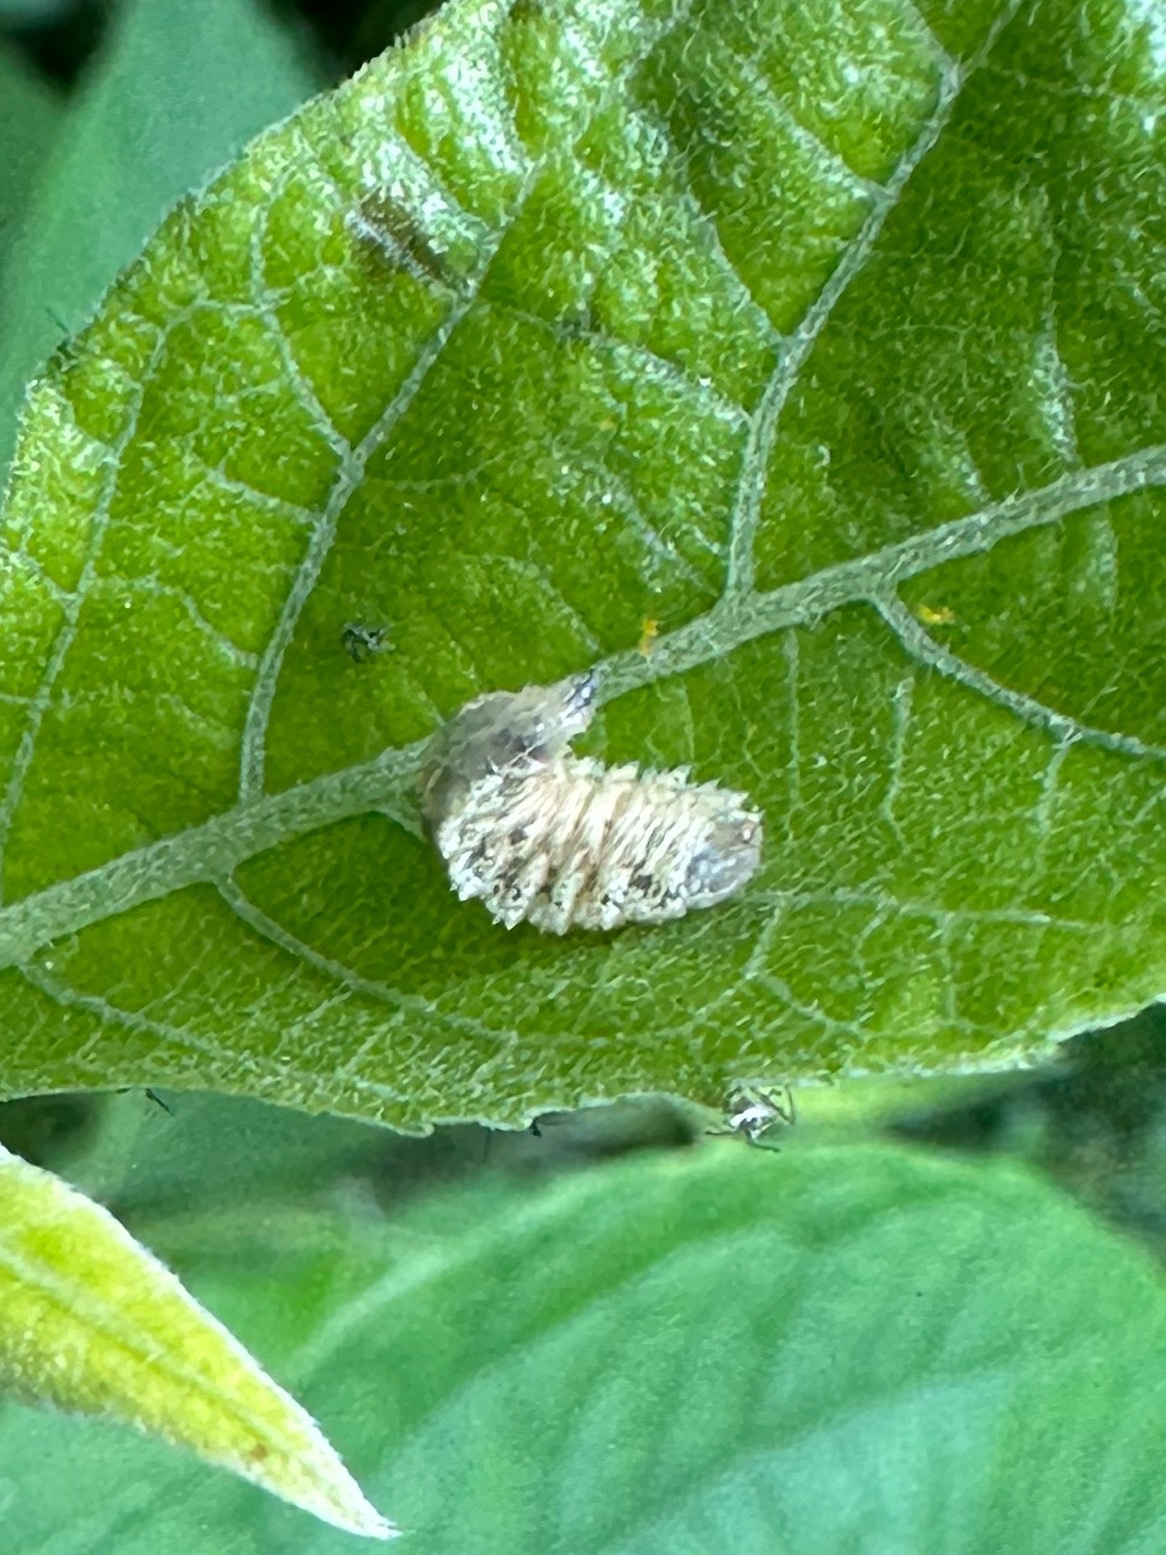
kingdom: Animalia
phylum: Arthropoda
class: Insecta
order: Diptera
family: Syrphidae
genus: Epistrophella
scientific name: Epistrophella emarginata
